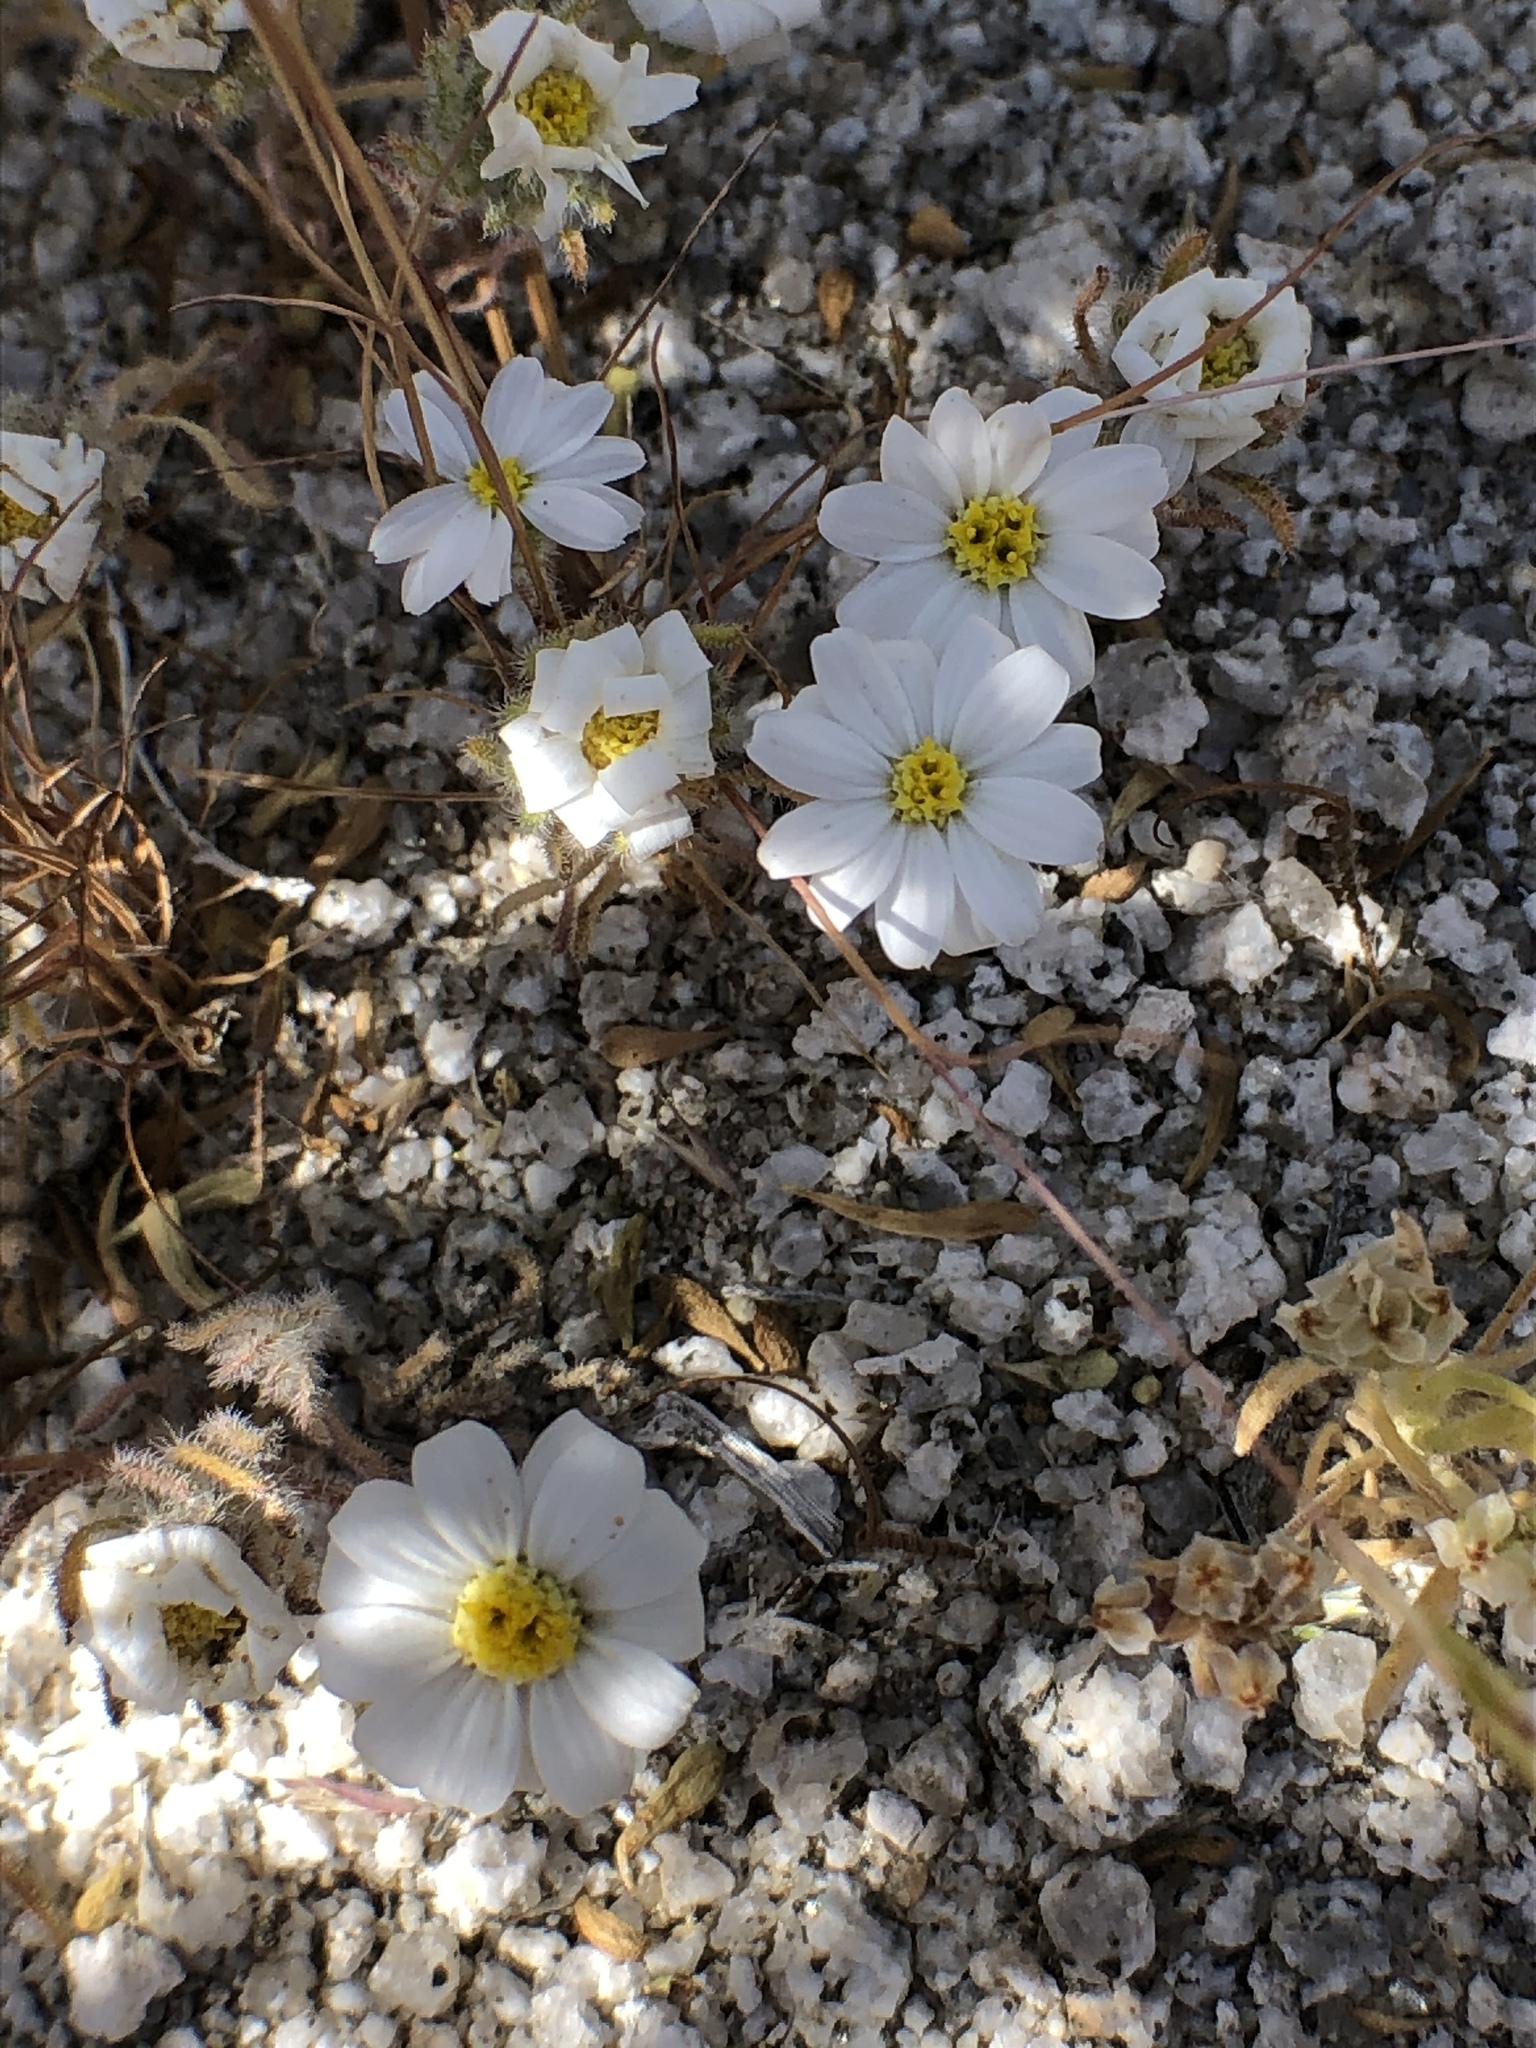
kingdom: Plantae
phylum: Tracheophyta
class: Magnoliopsida
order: Asterales
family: Asteraceae
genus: Monoptilon
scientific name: Monoptilon bellioides
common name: Bristly desertstar
